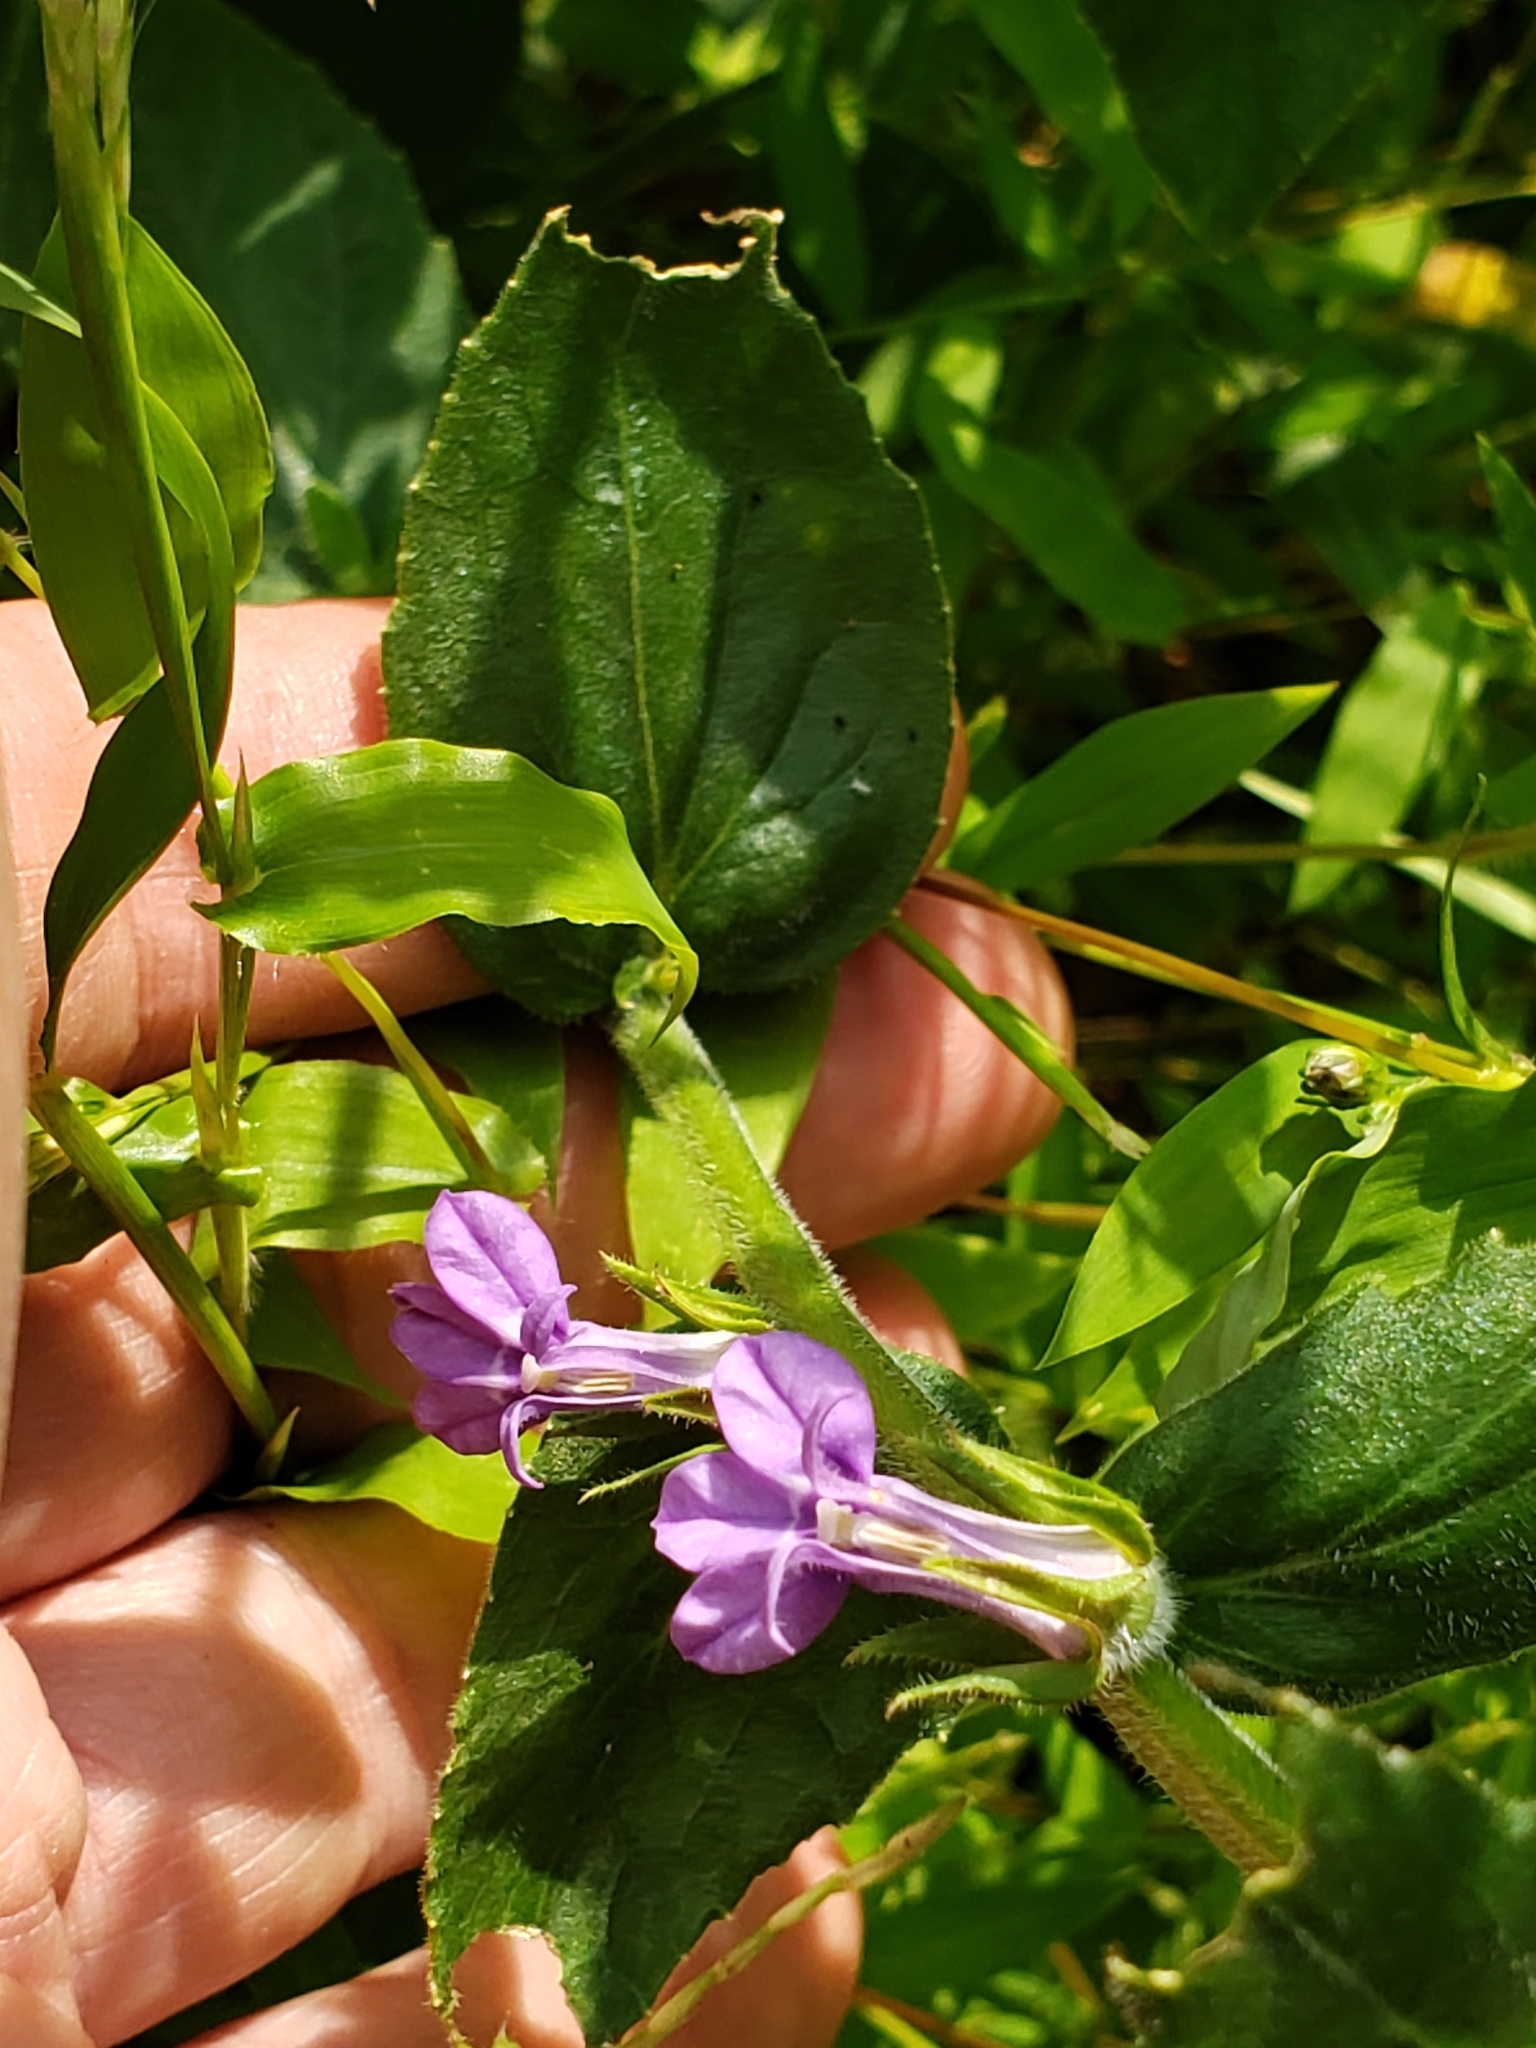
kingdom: Plantae
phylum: Tracheophyta
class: Magnoliopsida
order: Asterales
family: Campanulaceae
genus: Lobelia
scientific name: Lobelia puberula
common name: Purple dewdrop
